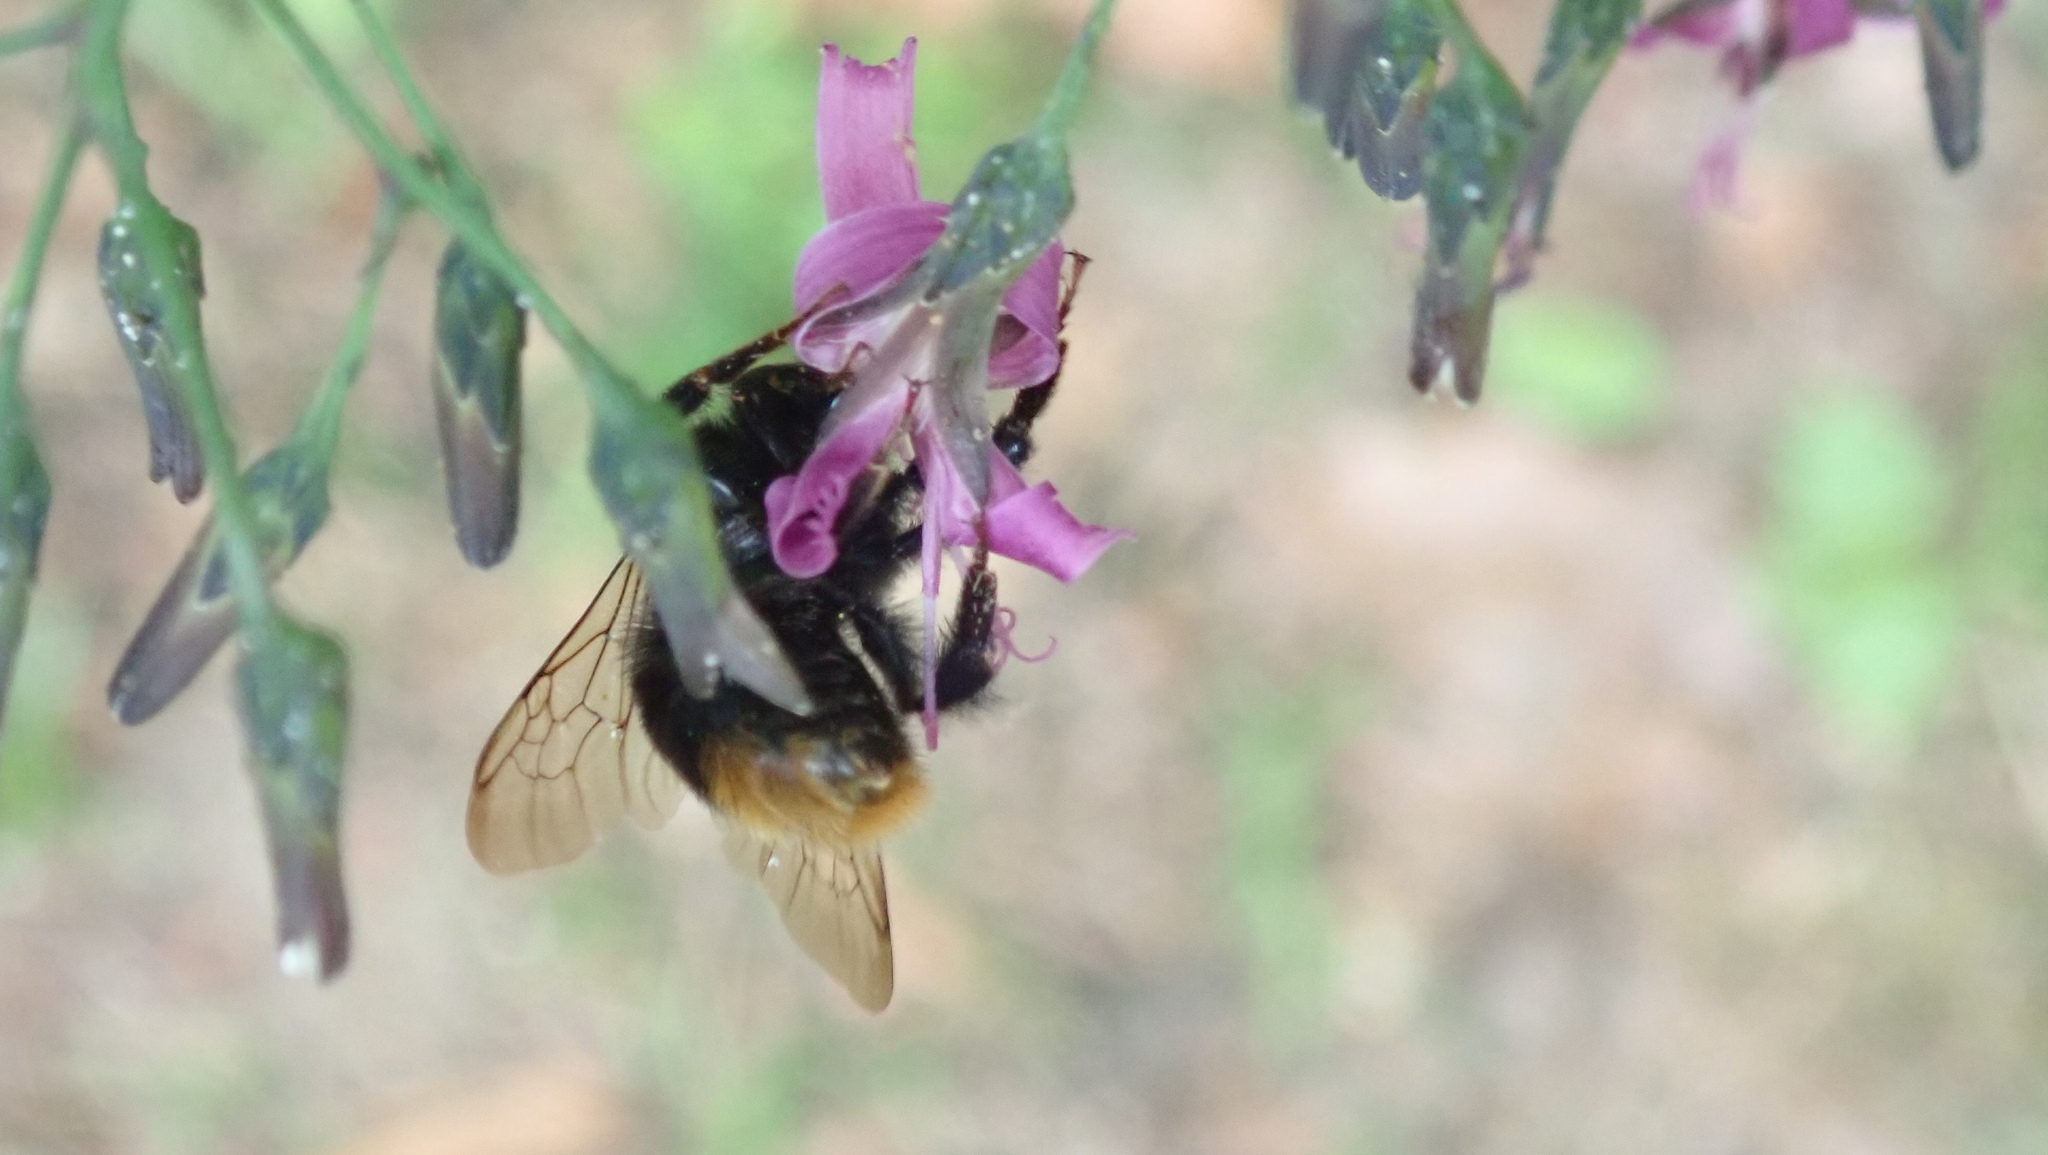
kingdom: Animalia
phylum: Arthropoda
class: Insecta
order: Hymenoptera
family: Apidae
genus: Bombus
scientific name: Bombus lapidarius
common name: Large red-tailed humble-bee
